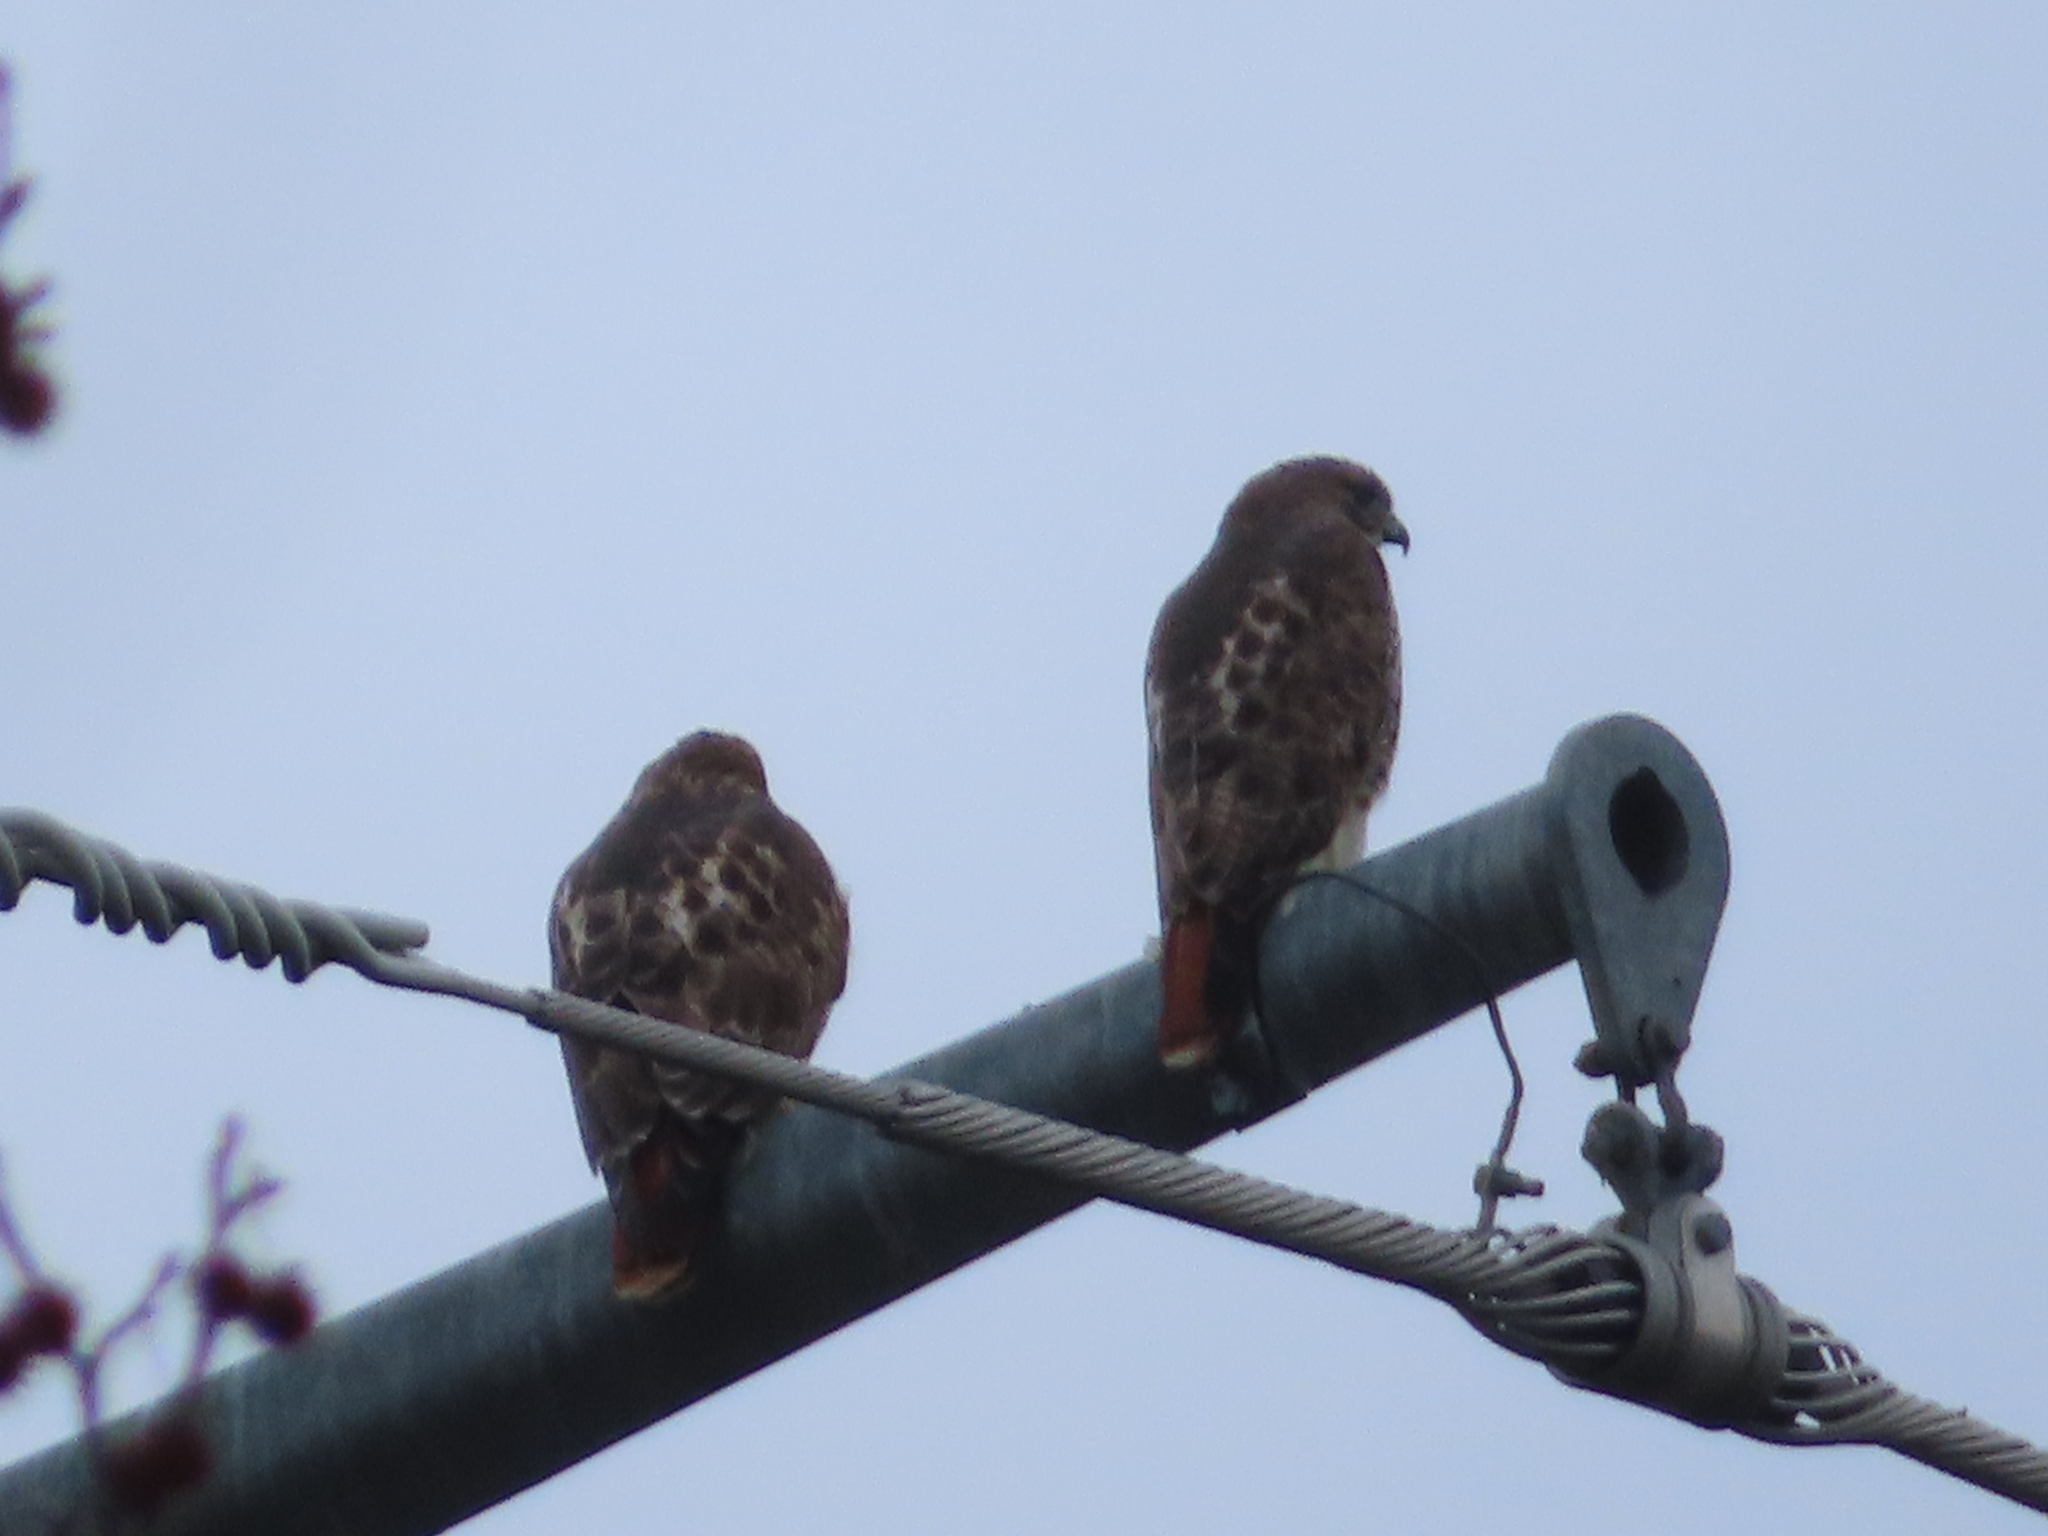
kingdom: Animalia
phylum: Chordata
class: Aves
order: Accipitriformes
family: Accipitridae
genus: Buteo
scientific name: Buteo jamaicensis
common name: Red-tailed hawk
